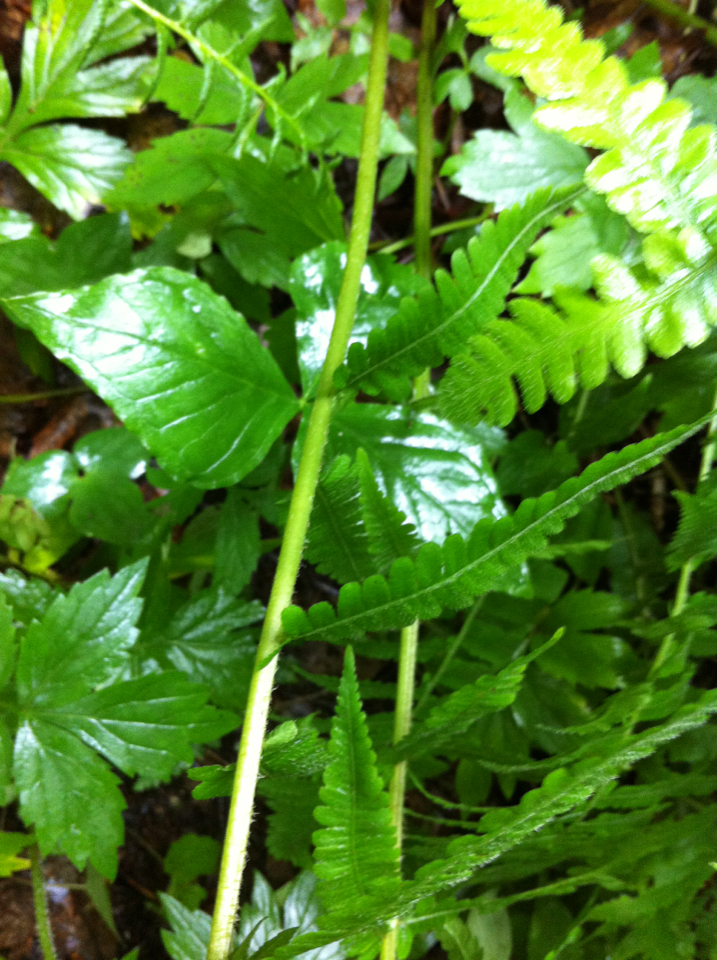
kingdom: Plantae
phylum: Tracheophyta
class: Polypodiopsida
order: Polypodiales
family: Athyriaceae
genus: Deparia
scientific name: Deparia acrostichoides
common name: Silver false spleenwort
